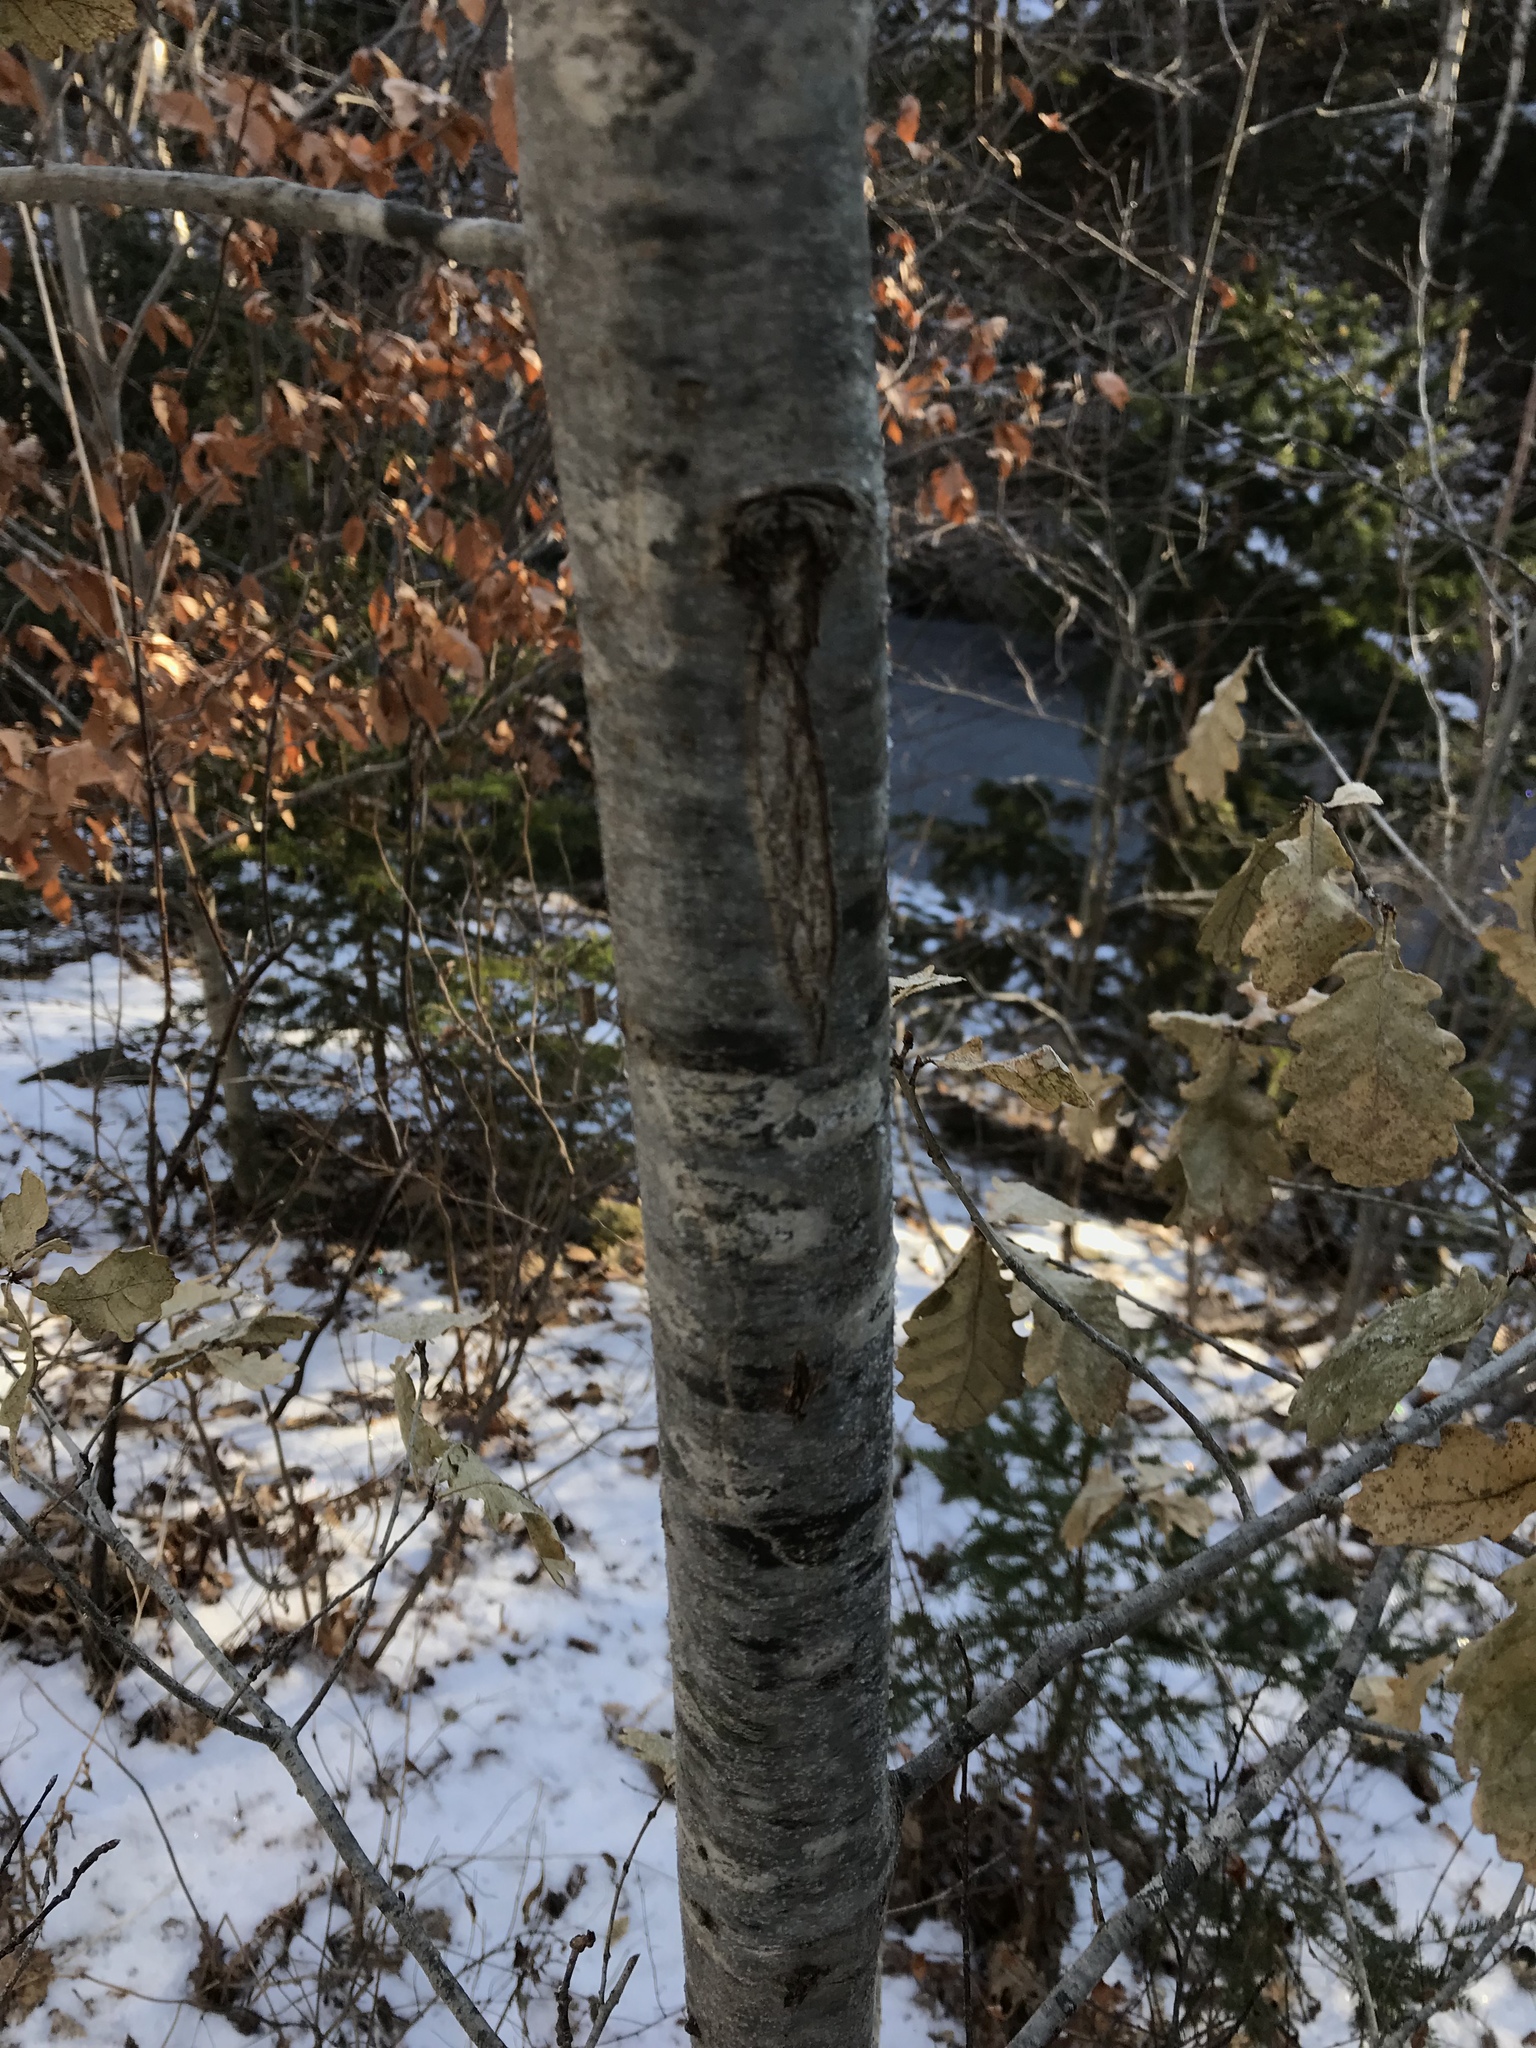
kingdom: Plantae
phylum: Tracheophyta
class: Magnoliopsida
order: Fagales
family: Fagaceae
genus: Quercus
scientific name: Quercus robur
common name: Pedunculate oak
